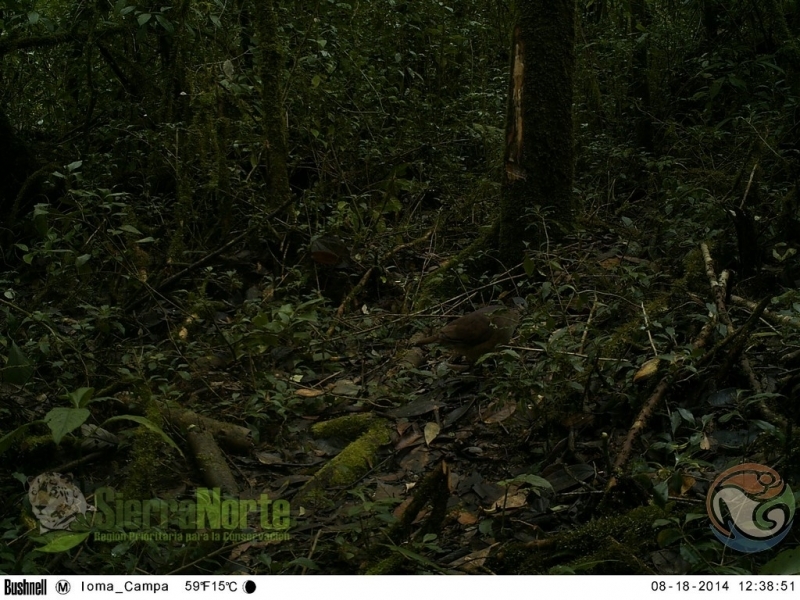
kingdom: Animalia
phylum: Chordata
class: Aves
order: Columbiformes
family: Columbidae
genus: Zentrygon
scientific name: Zentrygon albifacies
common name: White-faced quail-dove
